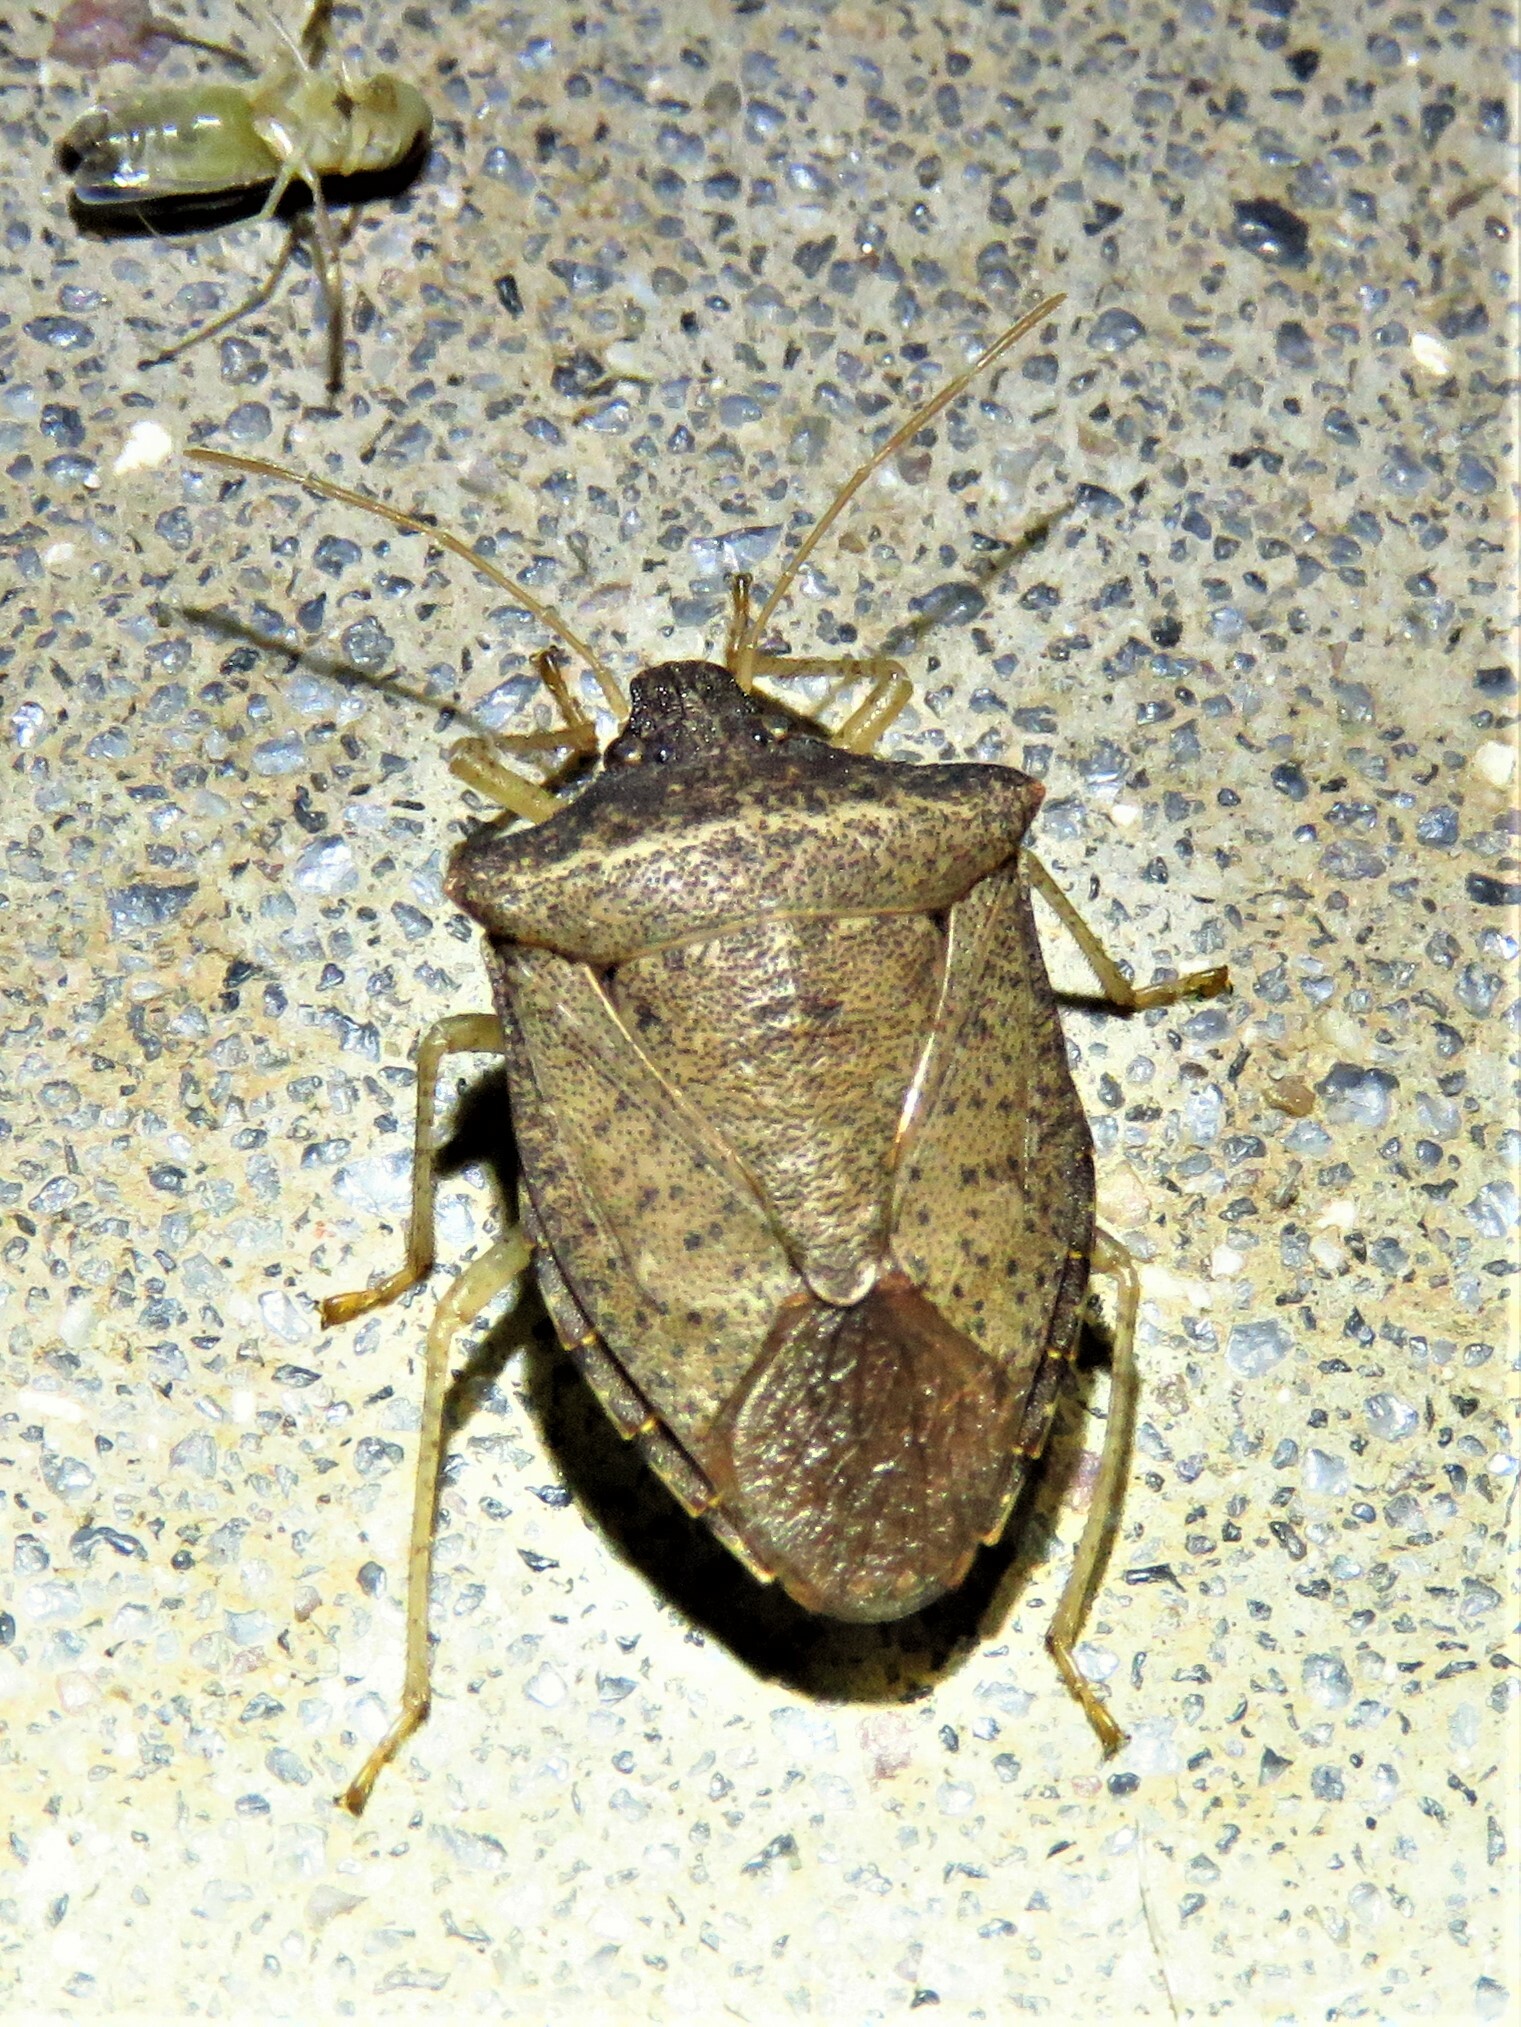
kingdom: Animalia
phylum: Arthropoda
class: Insecta
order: Hemiptera
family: Pentatomidae
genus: Euschistus
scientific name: Euschistus obscurus
